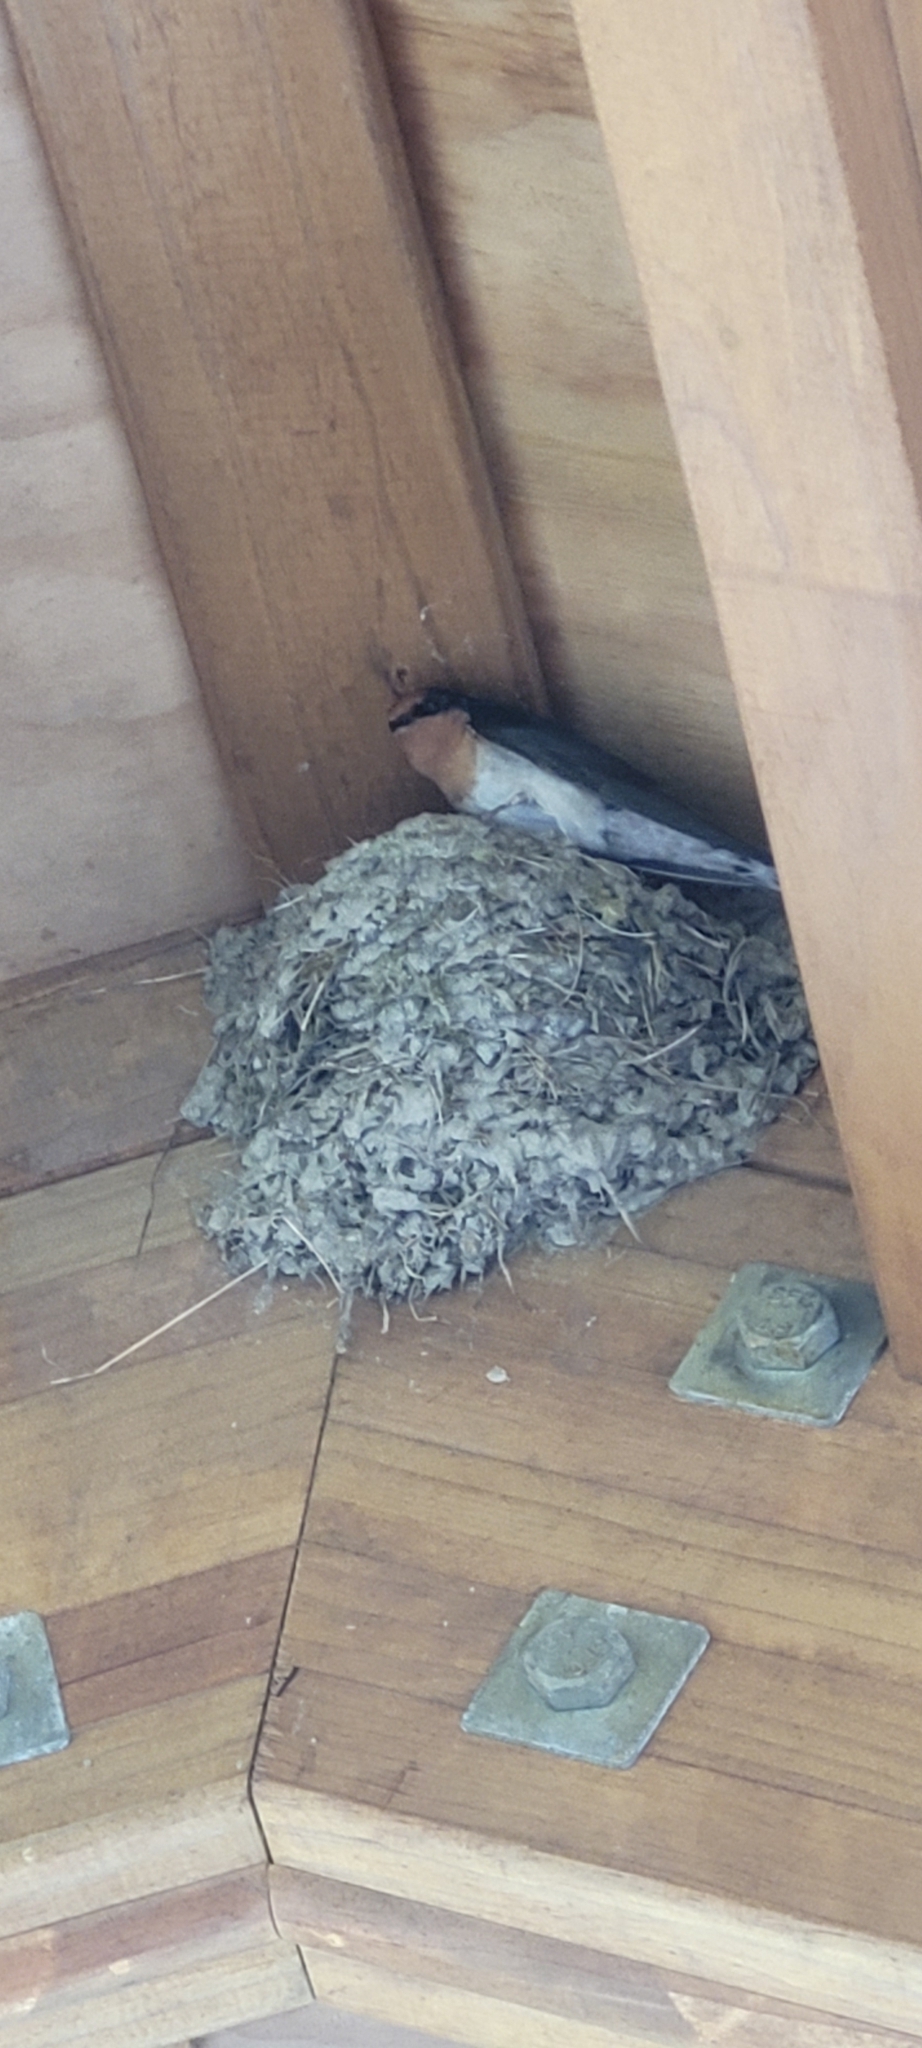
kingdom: Animalia
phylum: Chordata
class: Aves
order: Passeriformes
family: Hirundinidae
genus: Hirundo
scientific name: Hirundo neoxena
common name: Welcome swallow
